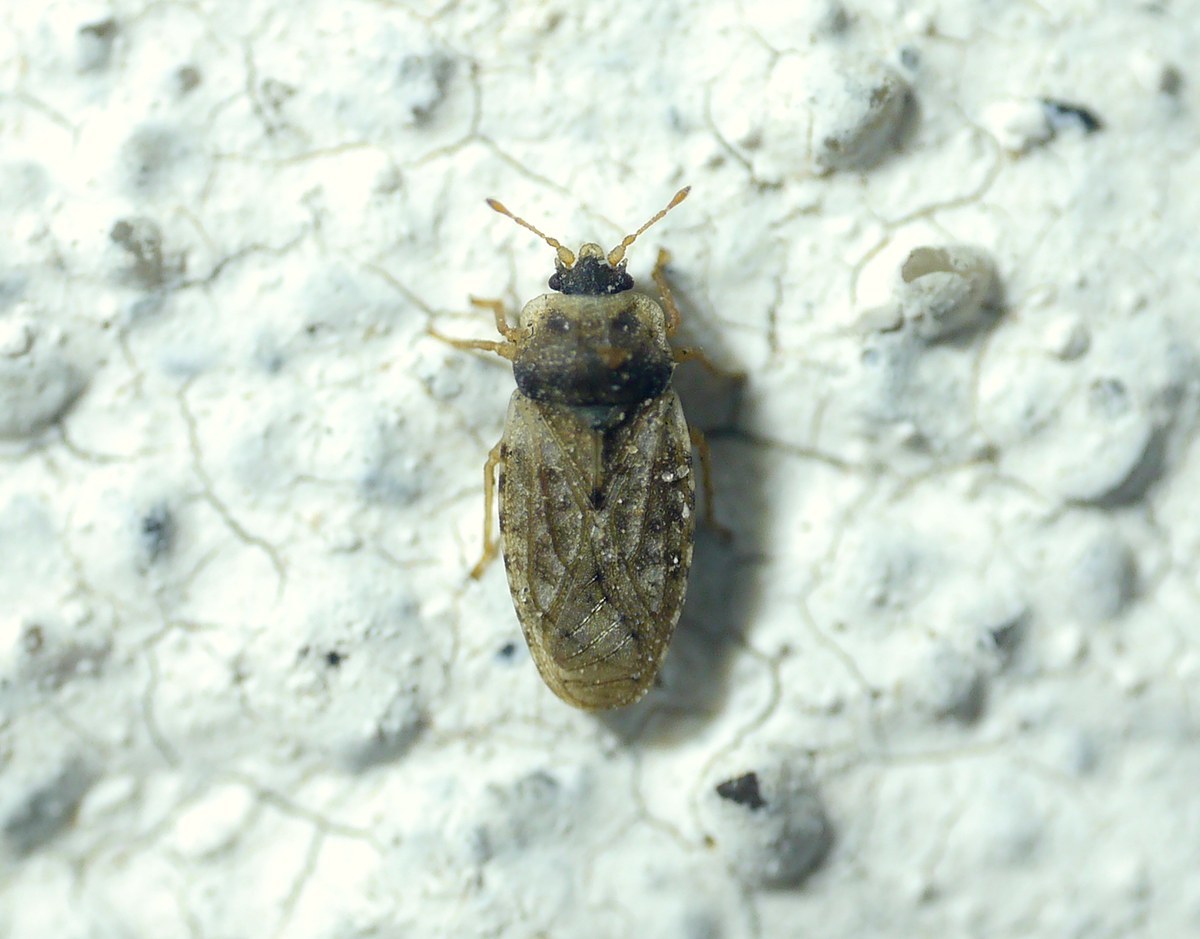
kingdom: Animalia
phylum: Arthropoda
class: Insecta
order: Hemiptera
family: Piesmatidae
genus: Piesma
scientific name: Piesma maculata
